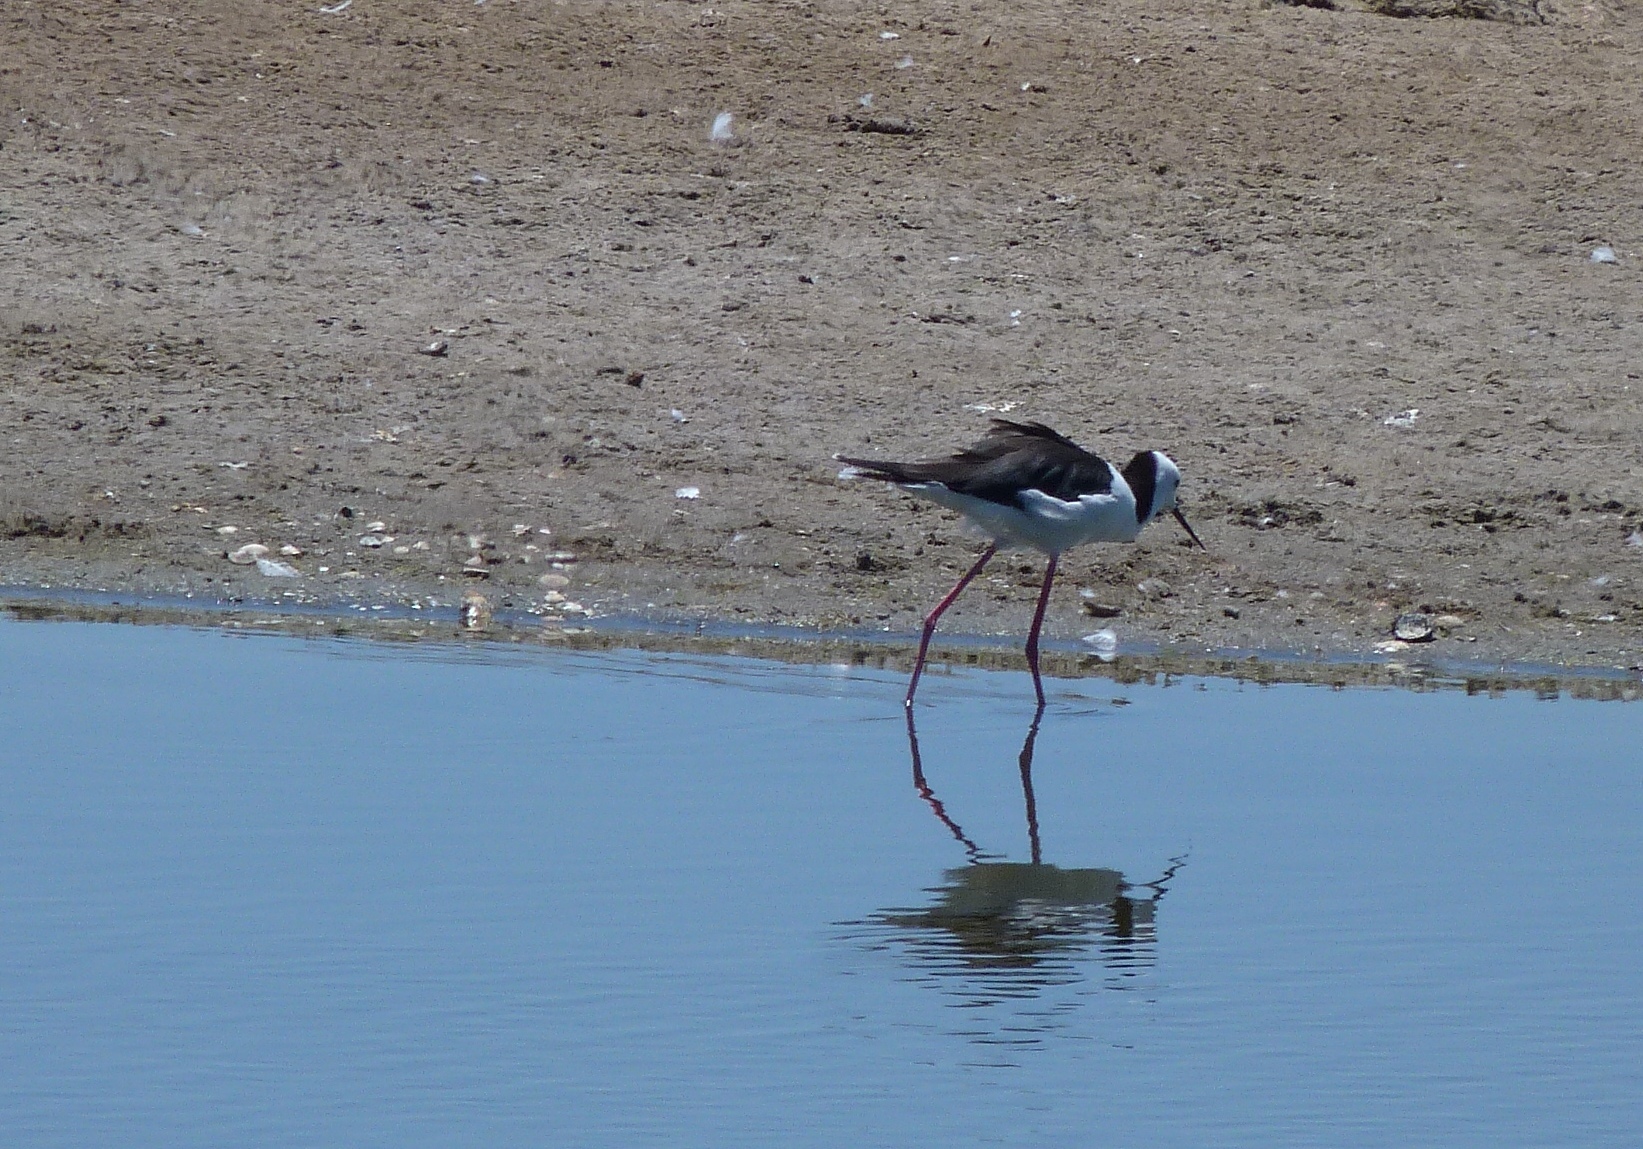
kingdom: Animalia
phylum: Chordata
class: Aves
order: Charadriiformes
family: Recurvirostridae
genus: Cladorhynchus
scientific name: Cladorhynchus leucocephalus
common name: Banded stilt
